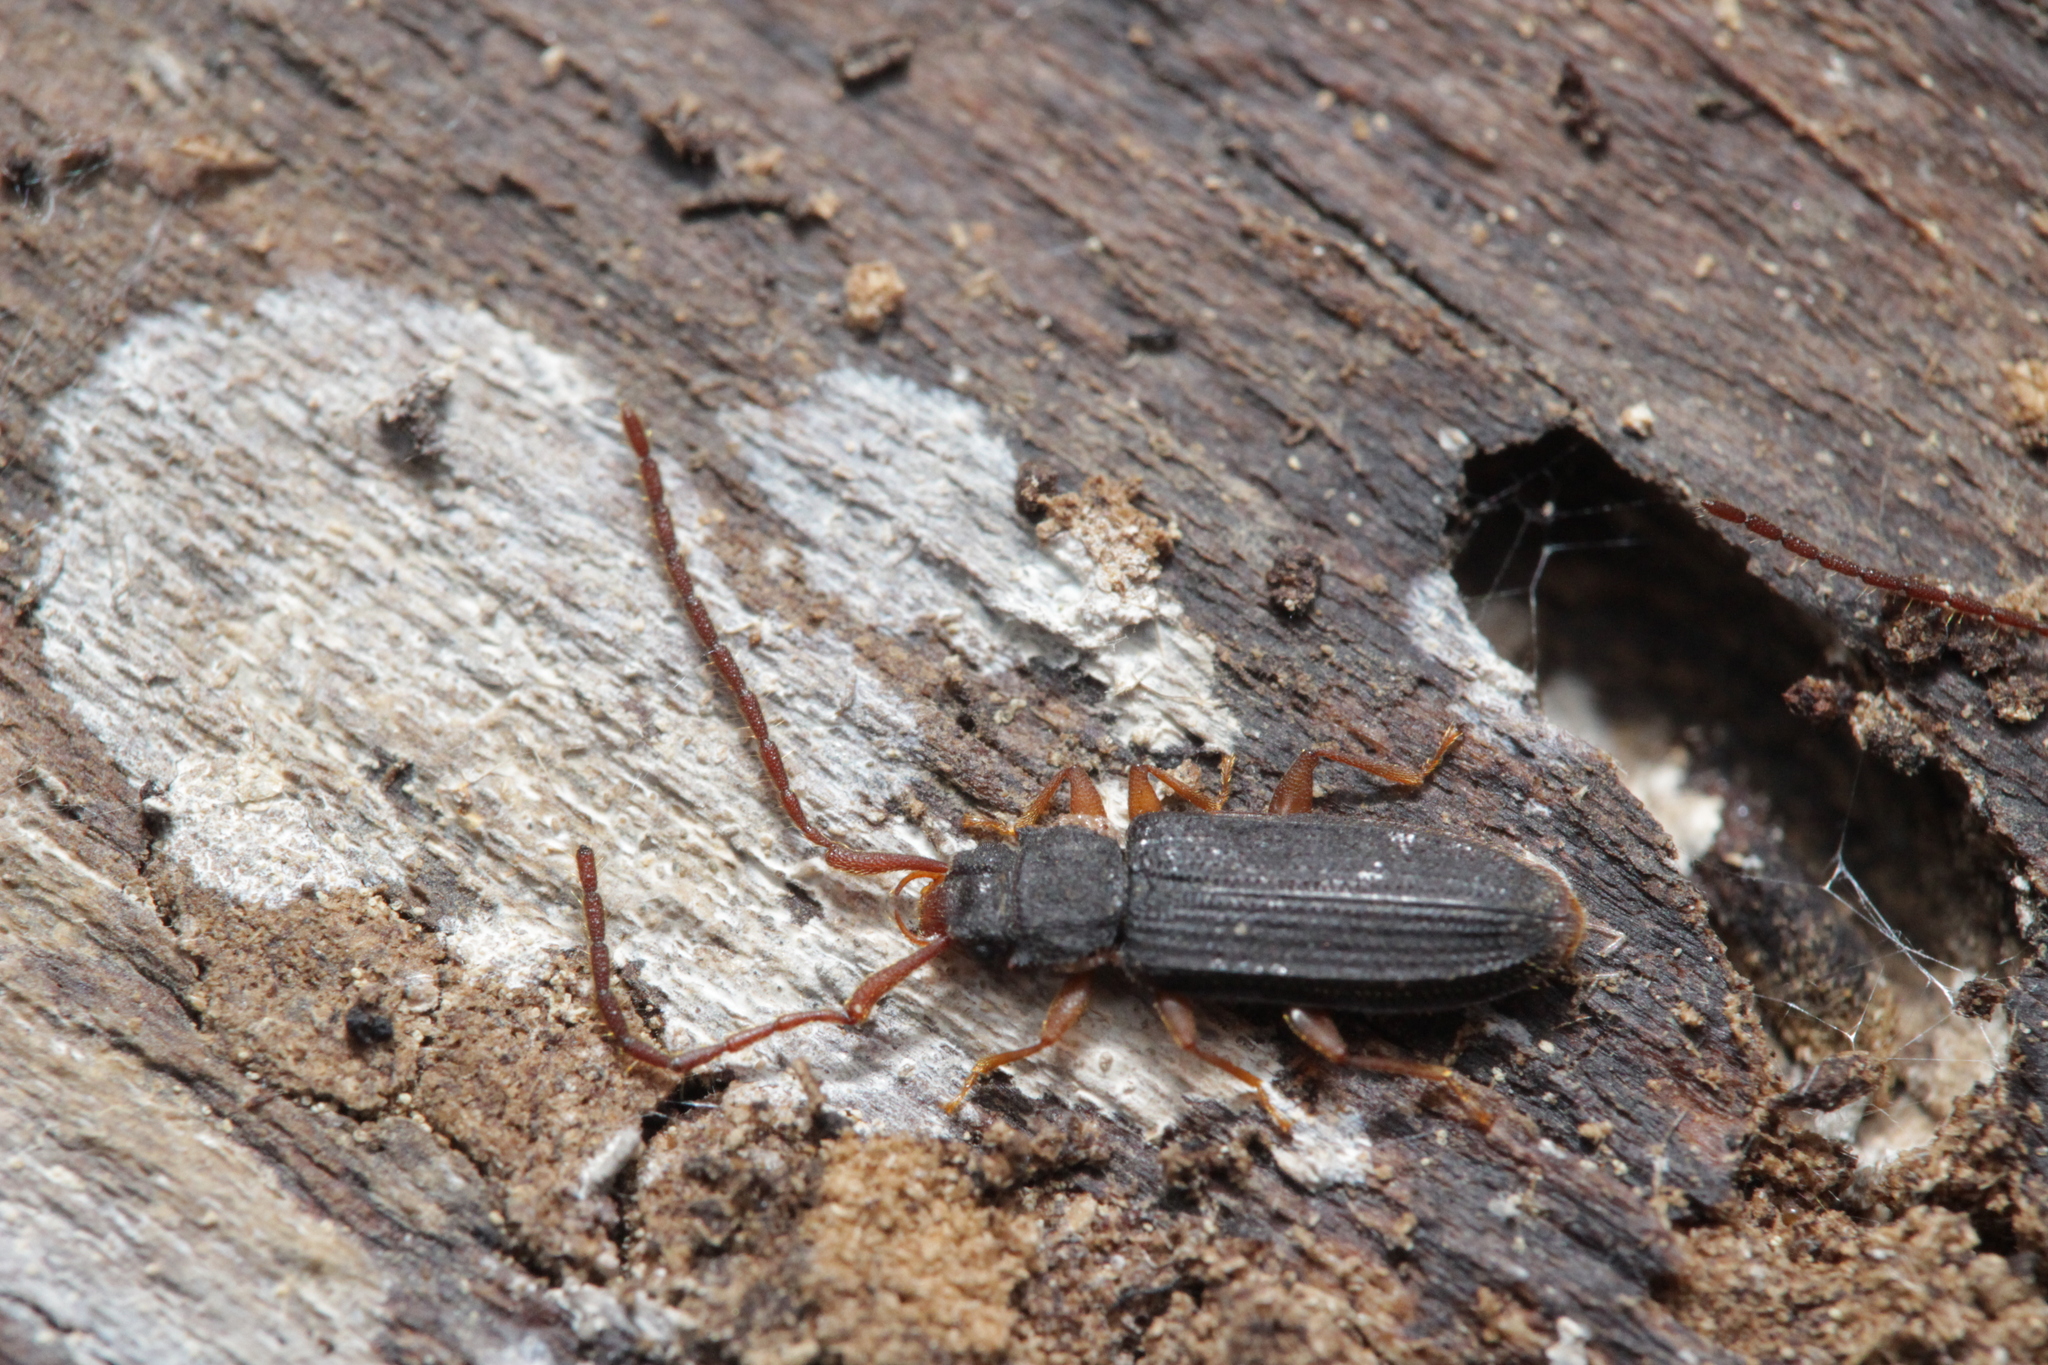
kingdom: Animalia
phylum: Arthropoda
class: Insecta
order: Coleoptera
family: Silvanidae
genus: Uleiota
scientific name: Uleiota planatus
